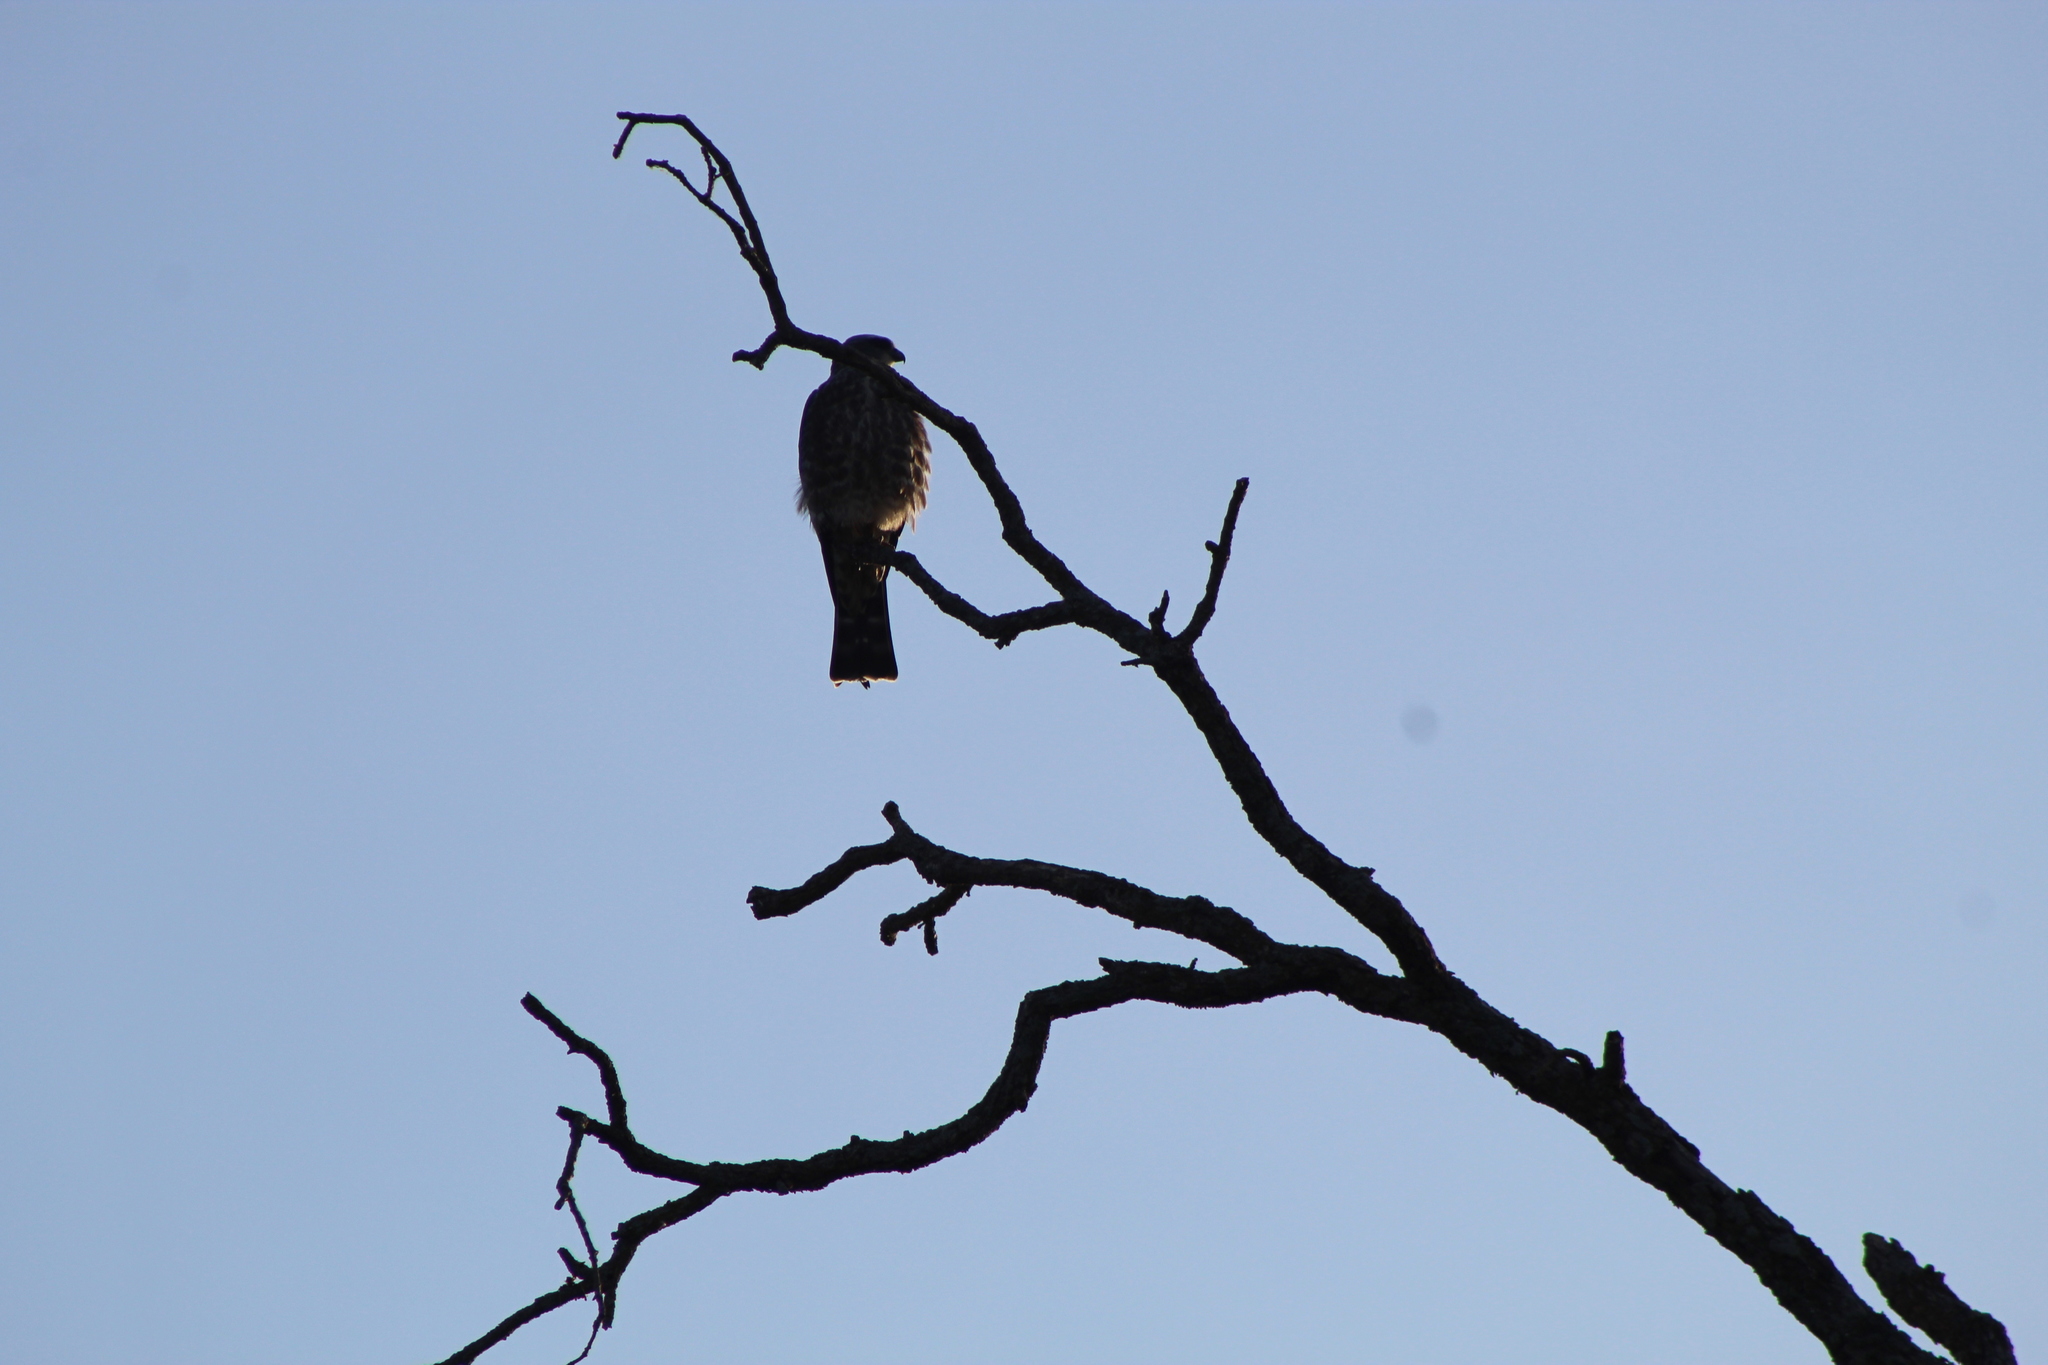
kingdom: Animalia
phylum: Chordata
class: Aves
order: Accipitriformes
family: Accipitridae
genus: Ictinia
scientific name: Ictinia mississippiensis
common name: Mississippi kite
